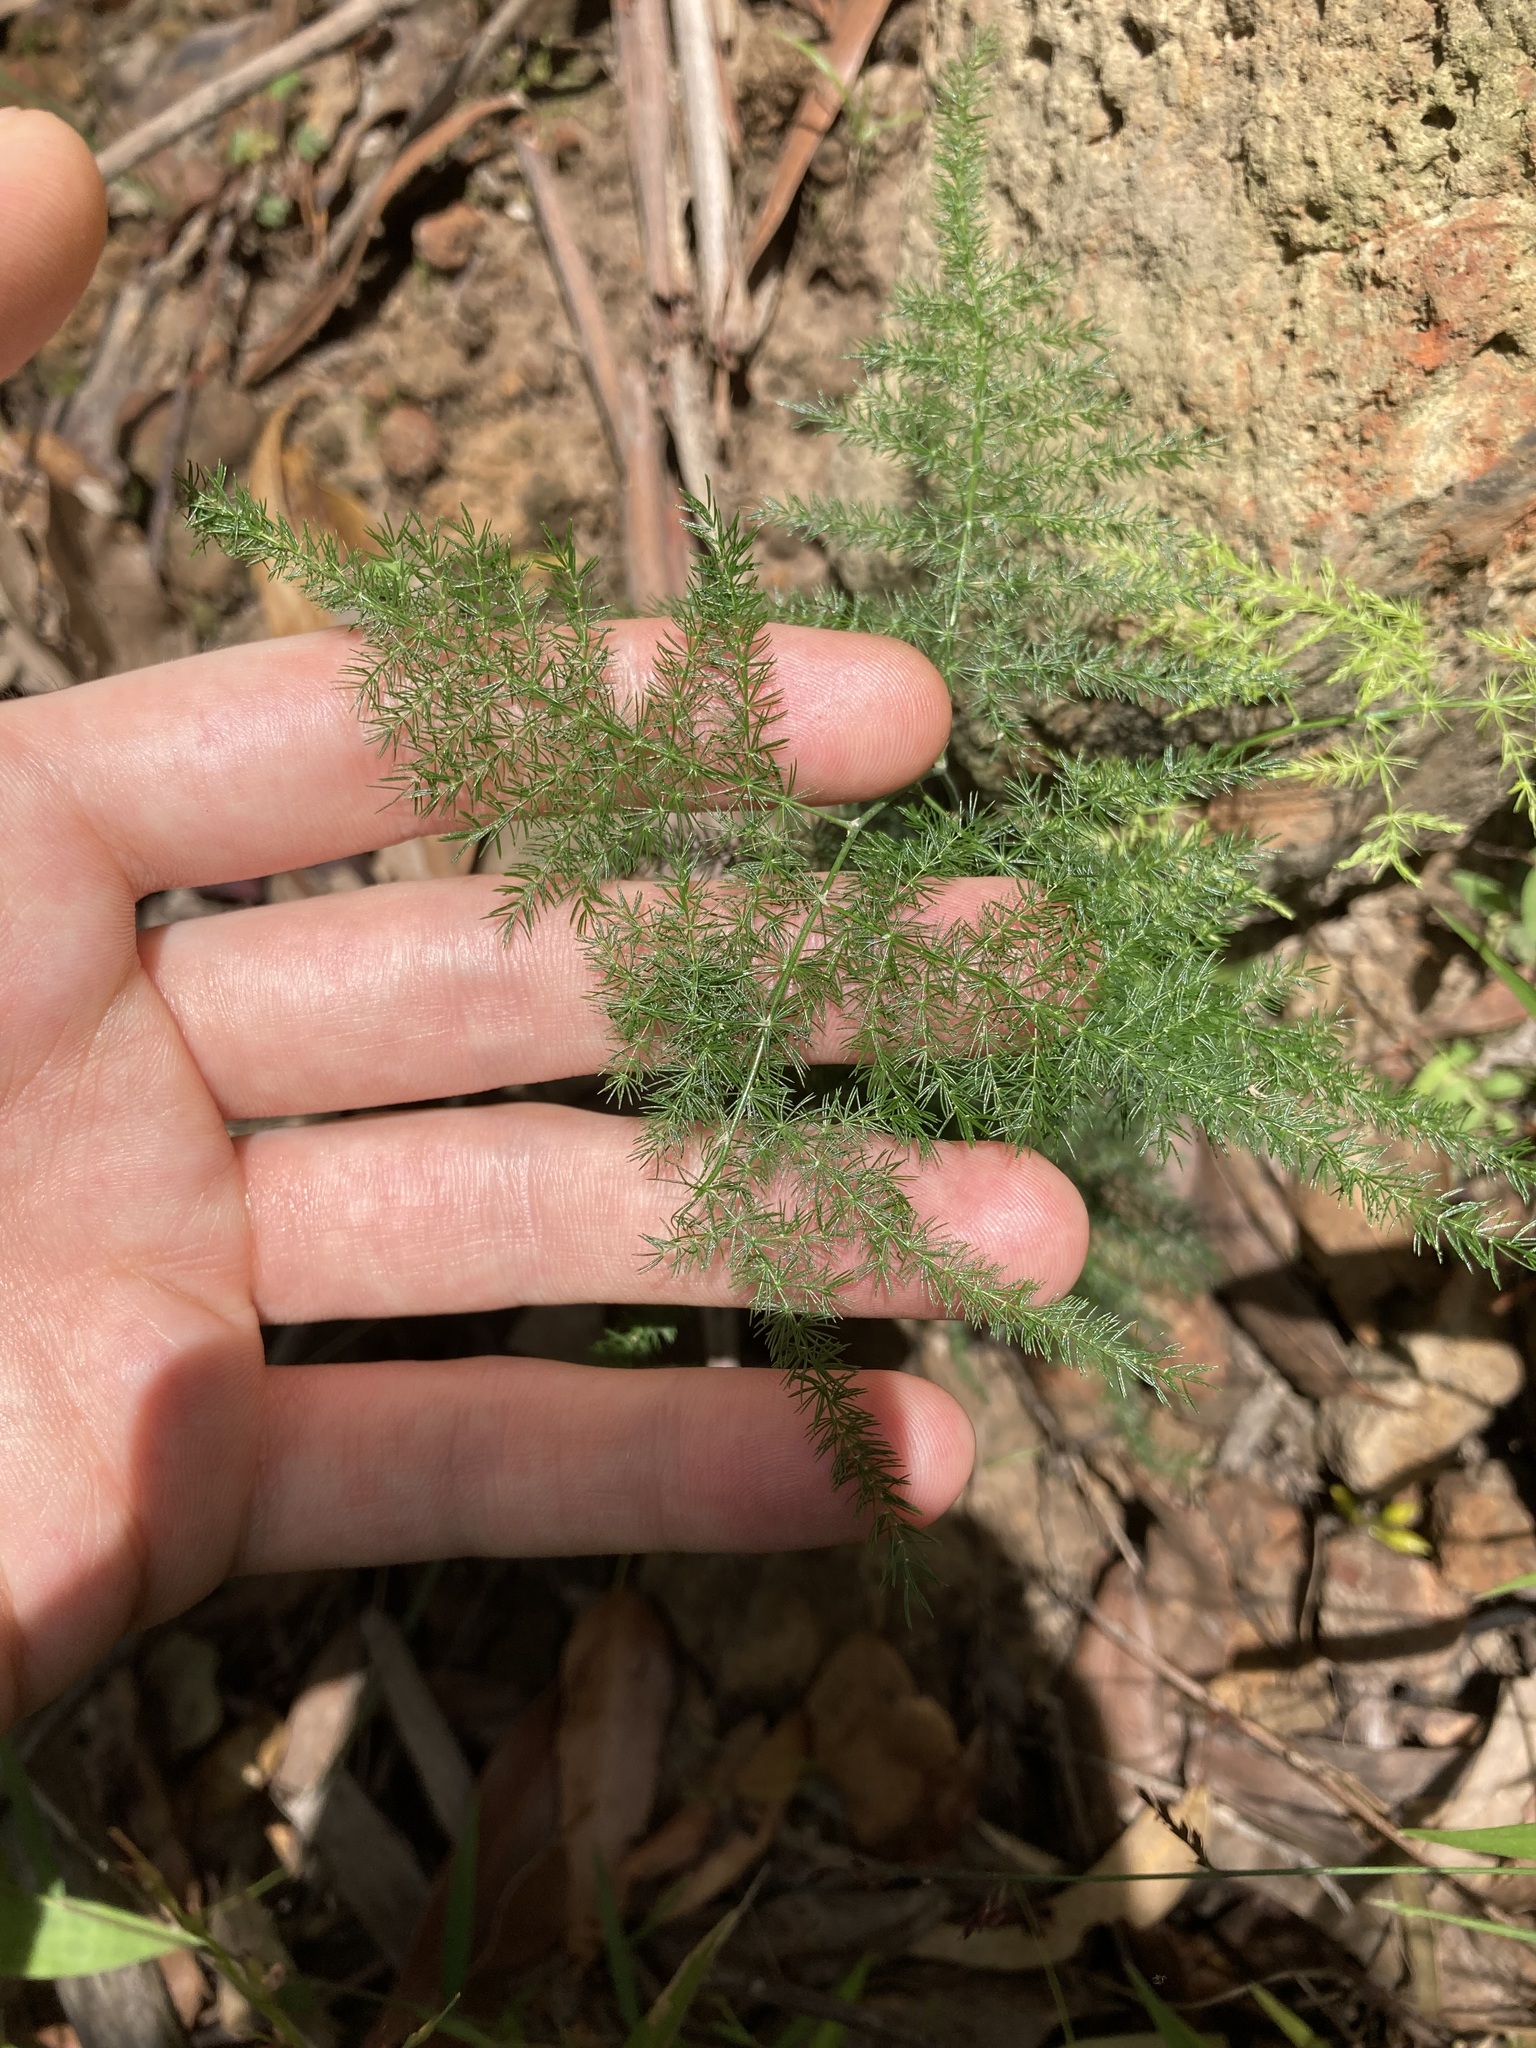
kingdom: Plantae
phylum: Tracheophyta
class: Liliopsida
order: Asparagales
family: Asparagaceae
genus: Asparagus
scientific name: Asparagus setaceus
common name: Common asparagus fern
